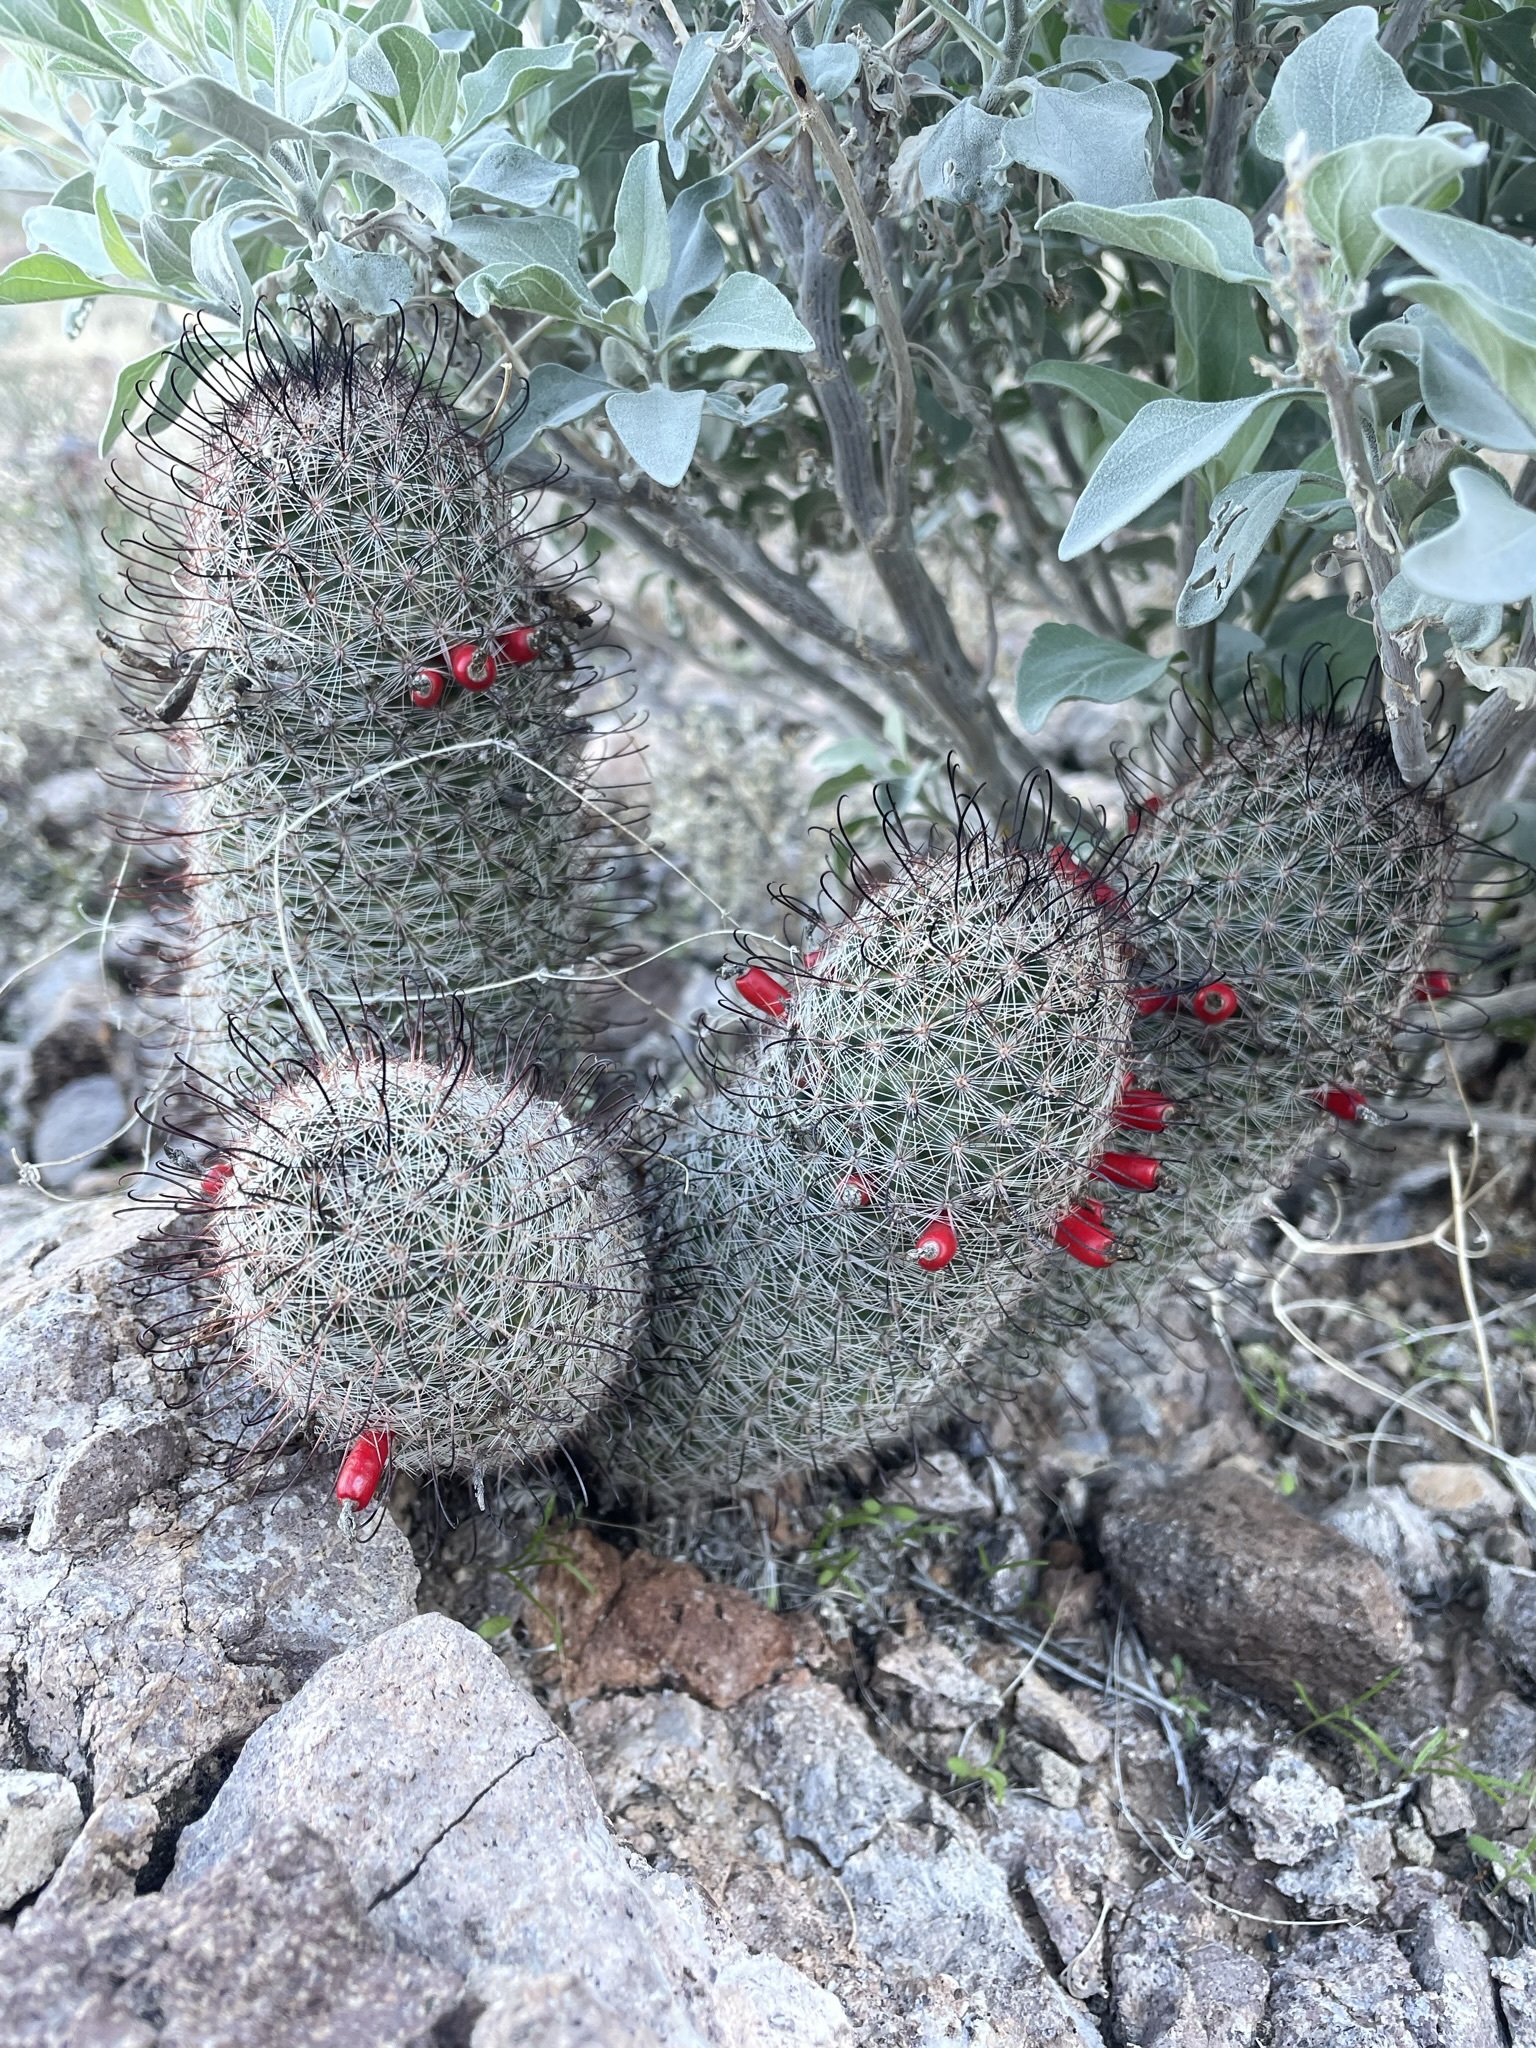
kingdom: Plantae
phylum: Tracheophyta
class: Magnoliopsida
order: Caryophyllales
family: Cactaceae
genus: Cochemiea
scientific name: Cochemiea grahamii
